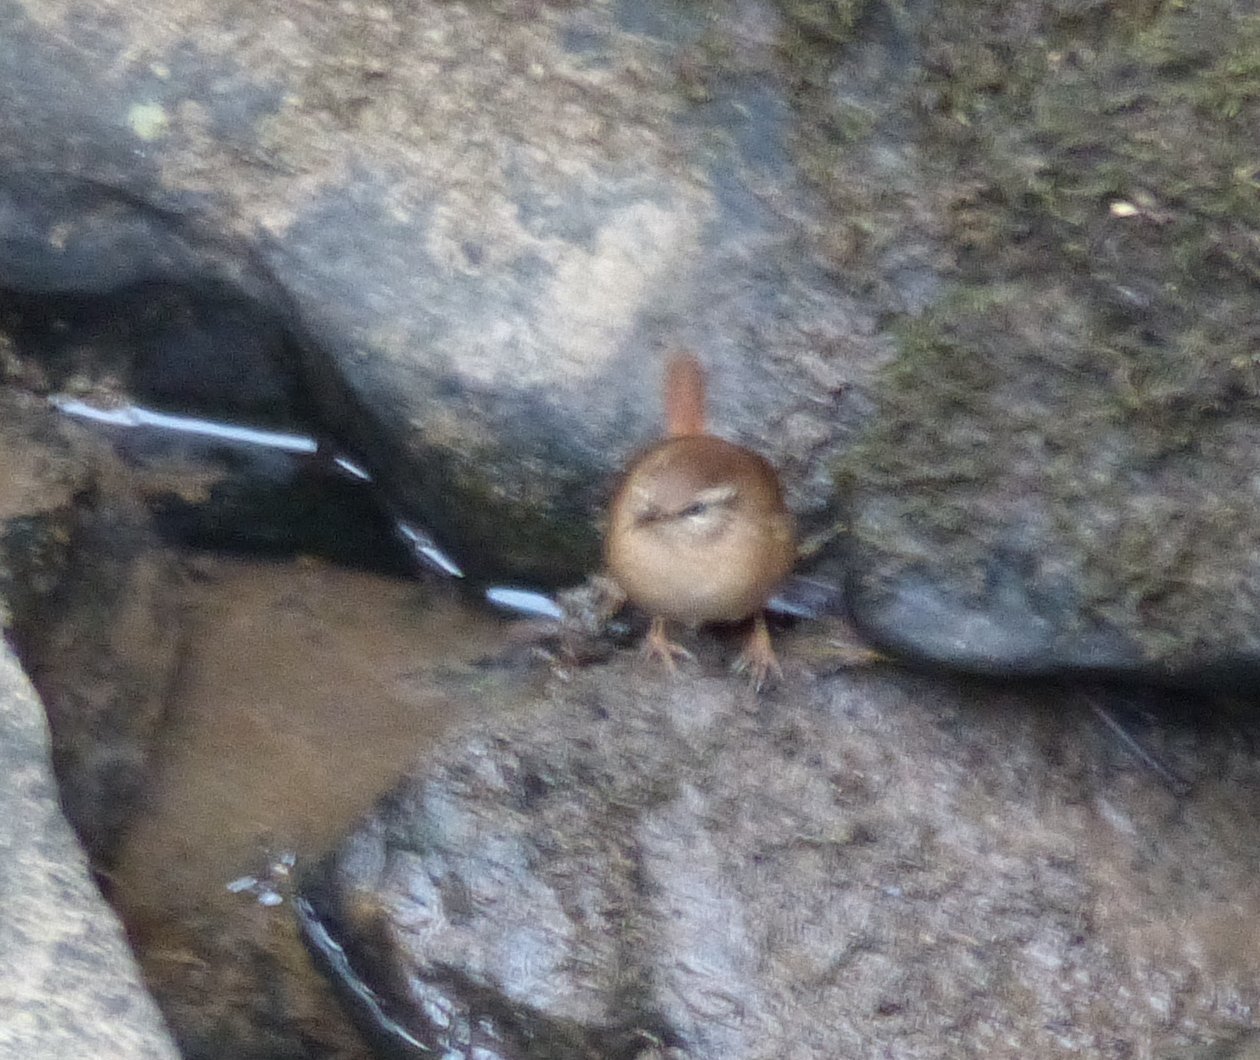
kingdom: Animalia
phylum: Chordata
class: Aves
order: Passeriformes
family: Troglodytidae
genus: Troglodytes
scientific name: Troglodytes troglodytes
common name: Eurasian wren
